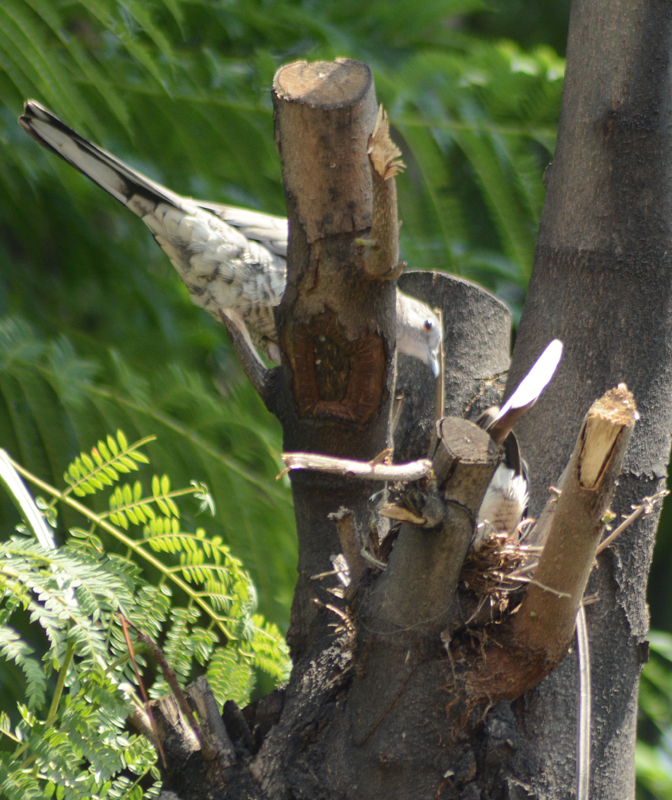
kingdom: Animalia
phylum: Chordata
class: Aves
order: Columbiformes
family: Columbidae
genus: Columbina
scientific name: Columbina inca
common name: Inca dove
